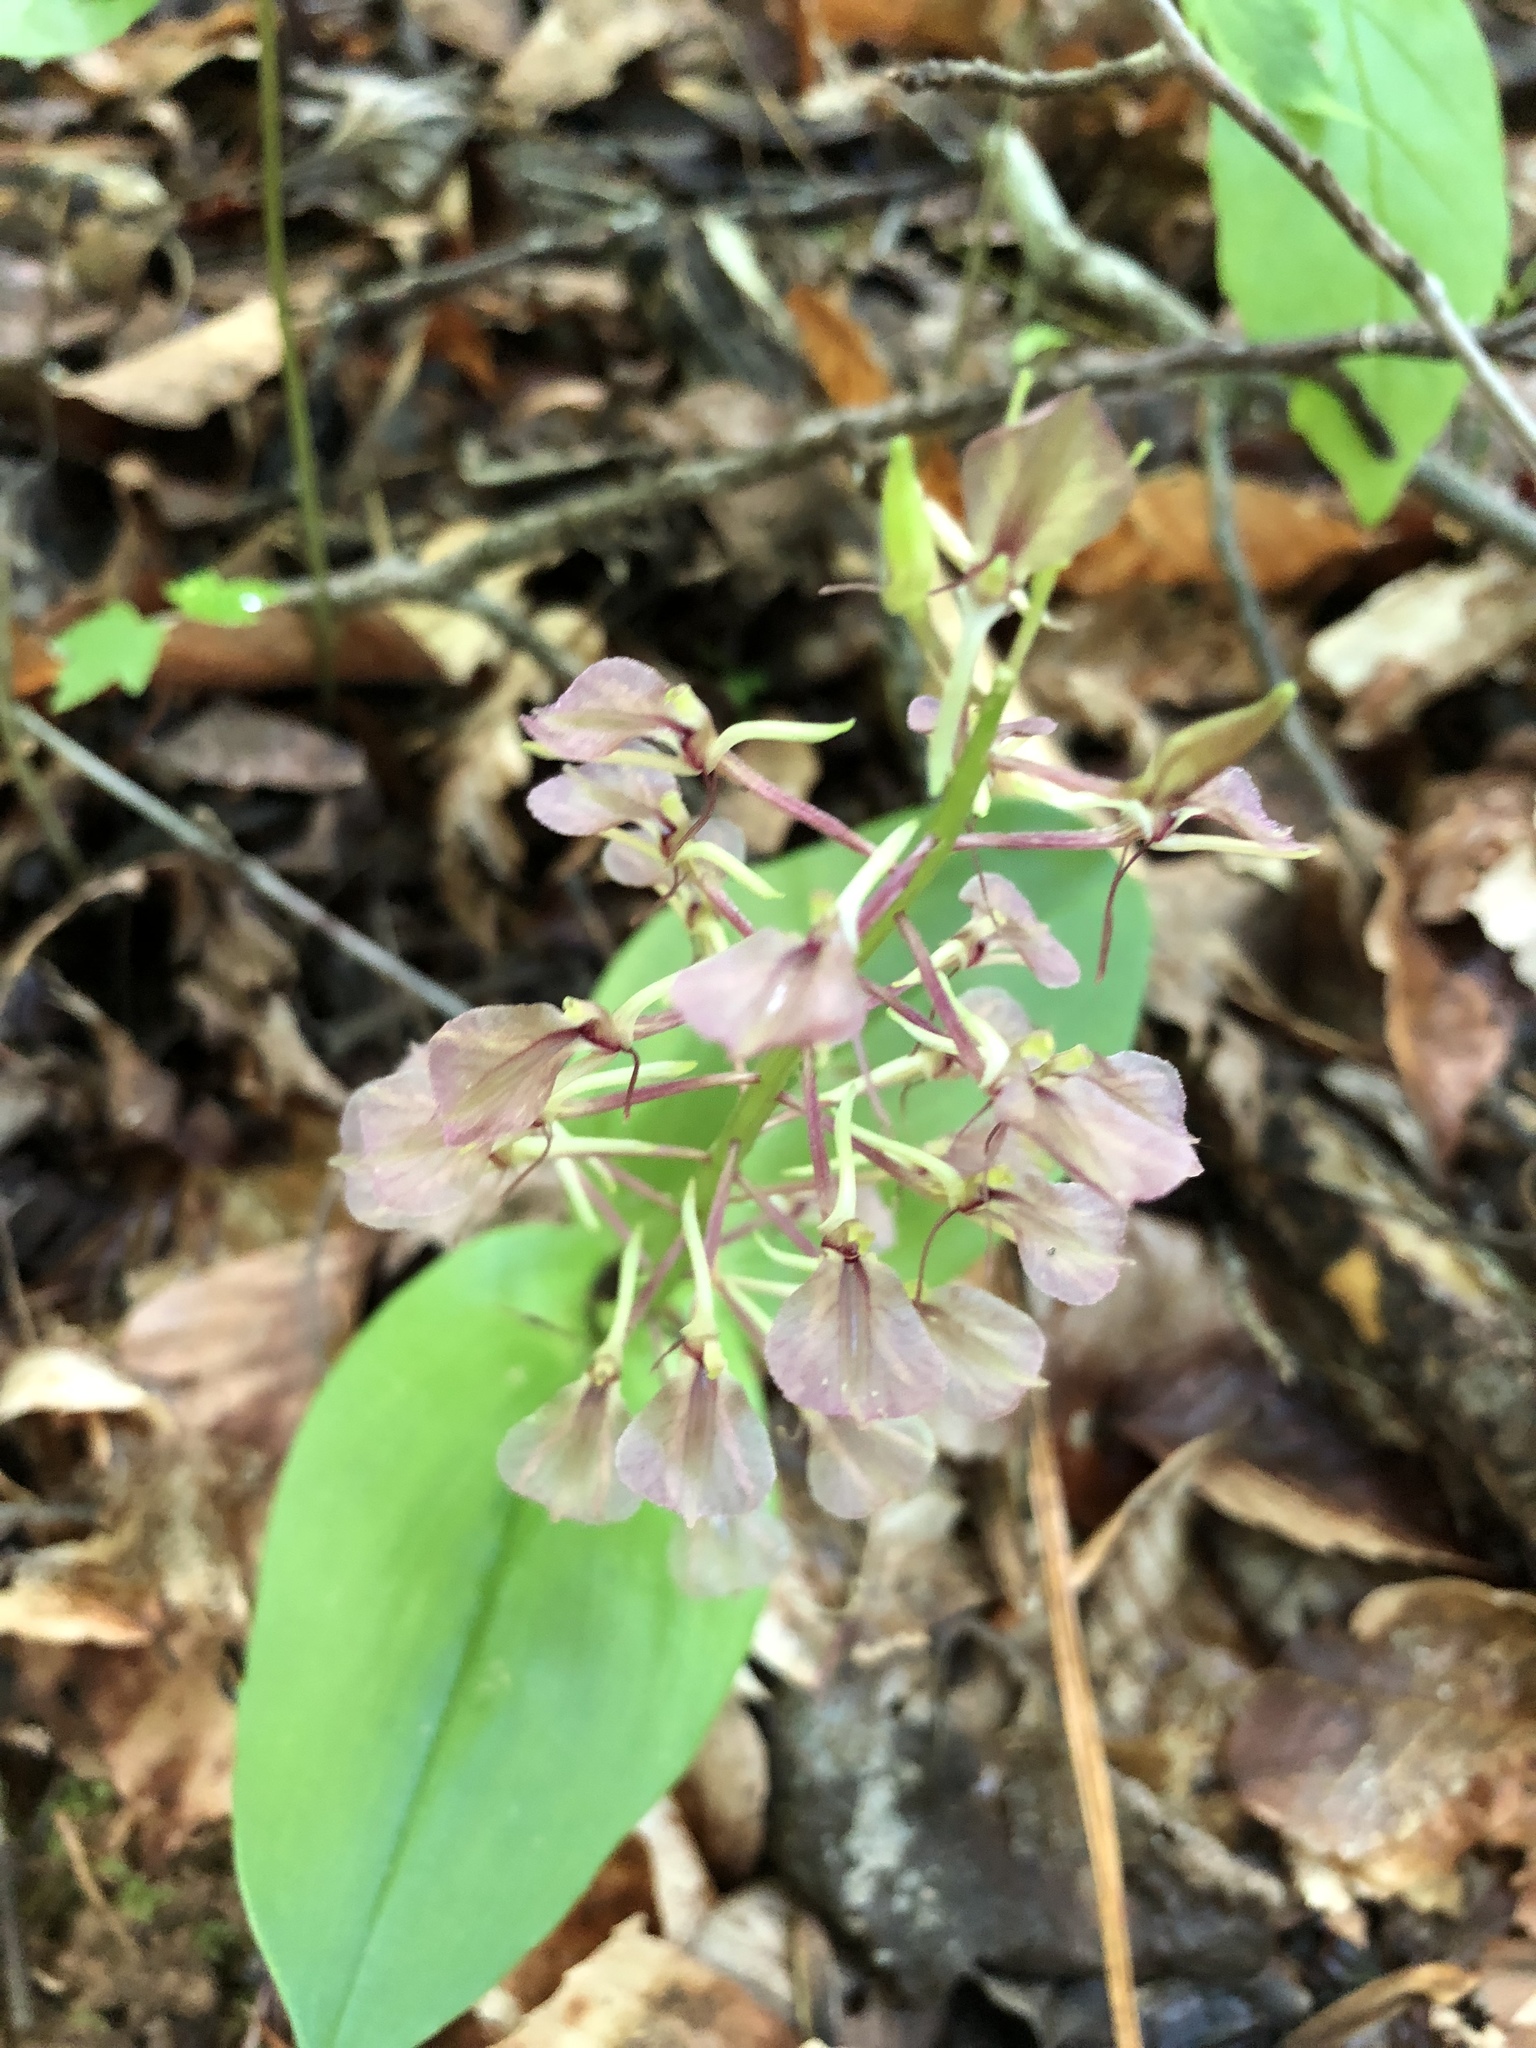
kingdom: Plantae
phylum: Tracheophyta
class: Liliopsida
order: Asparagales
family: Orchidaceae
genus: Liparis
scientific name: Liparis liliifolia
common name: Brown wide-lip orchid
